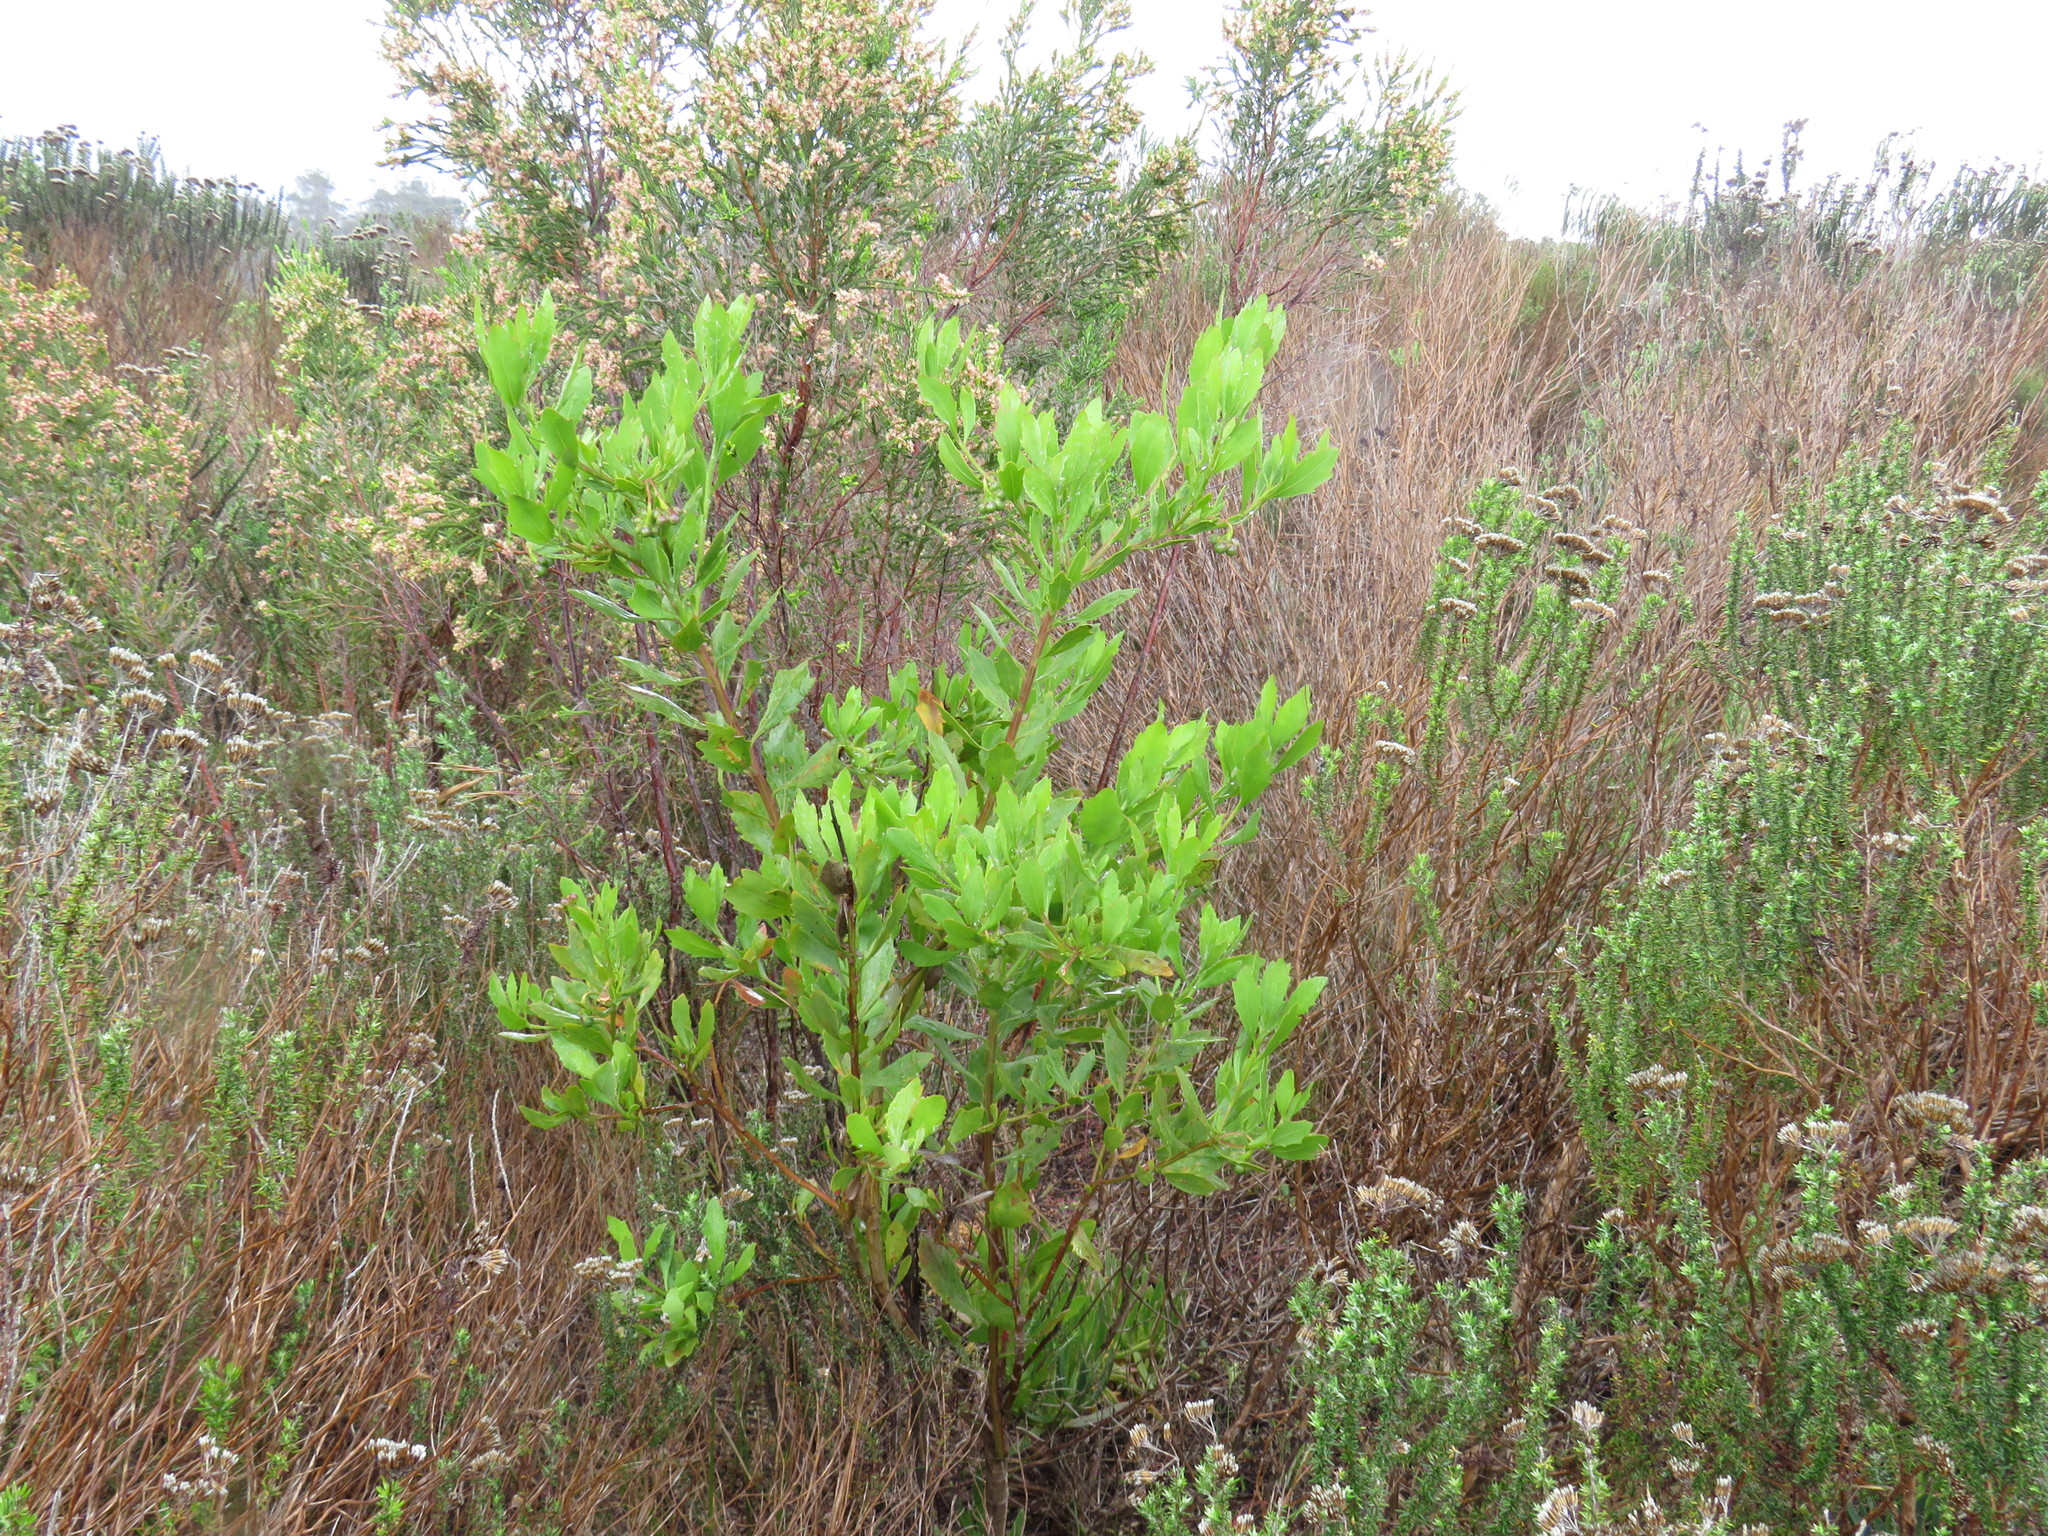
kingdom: Plantae
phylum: Tracheophyta
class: Magnoliopsida
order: Asterales
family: Asteraceae
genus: Osteospermum
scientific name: Osteospermum moniliferum
